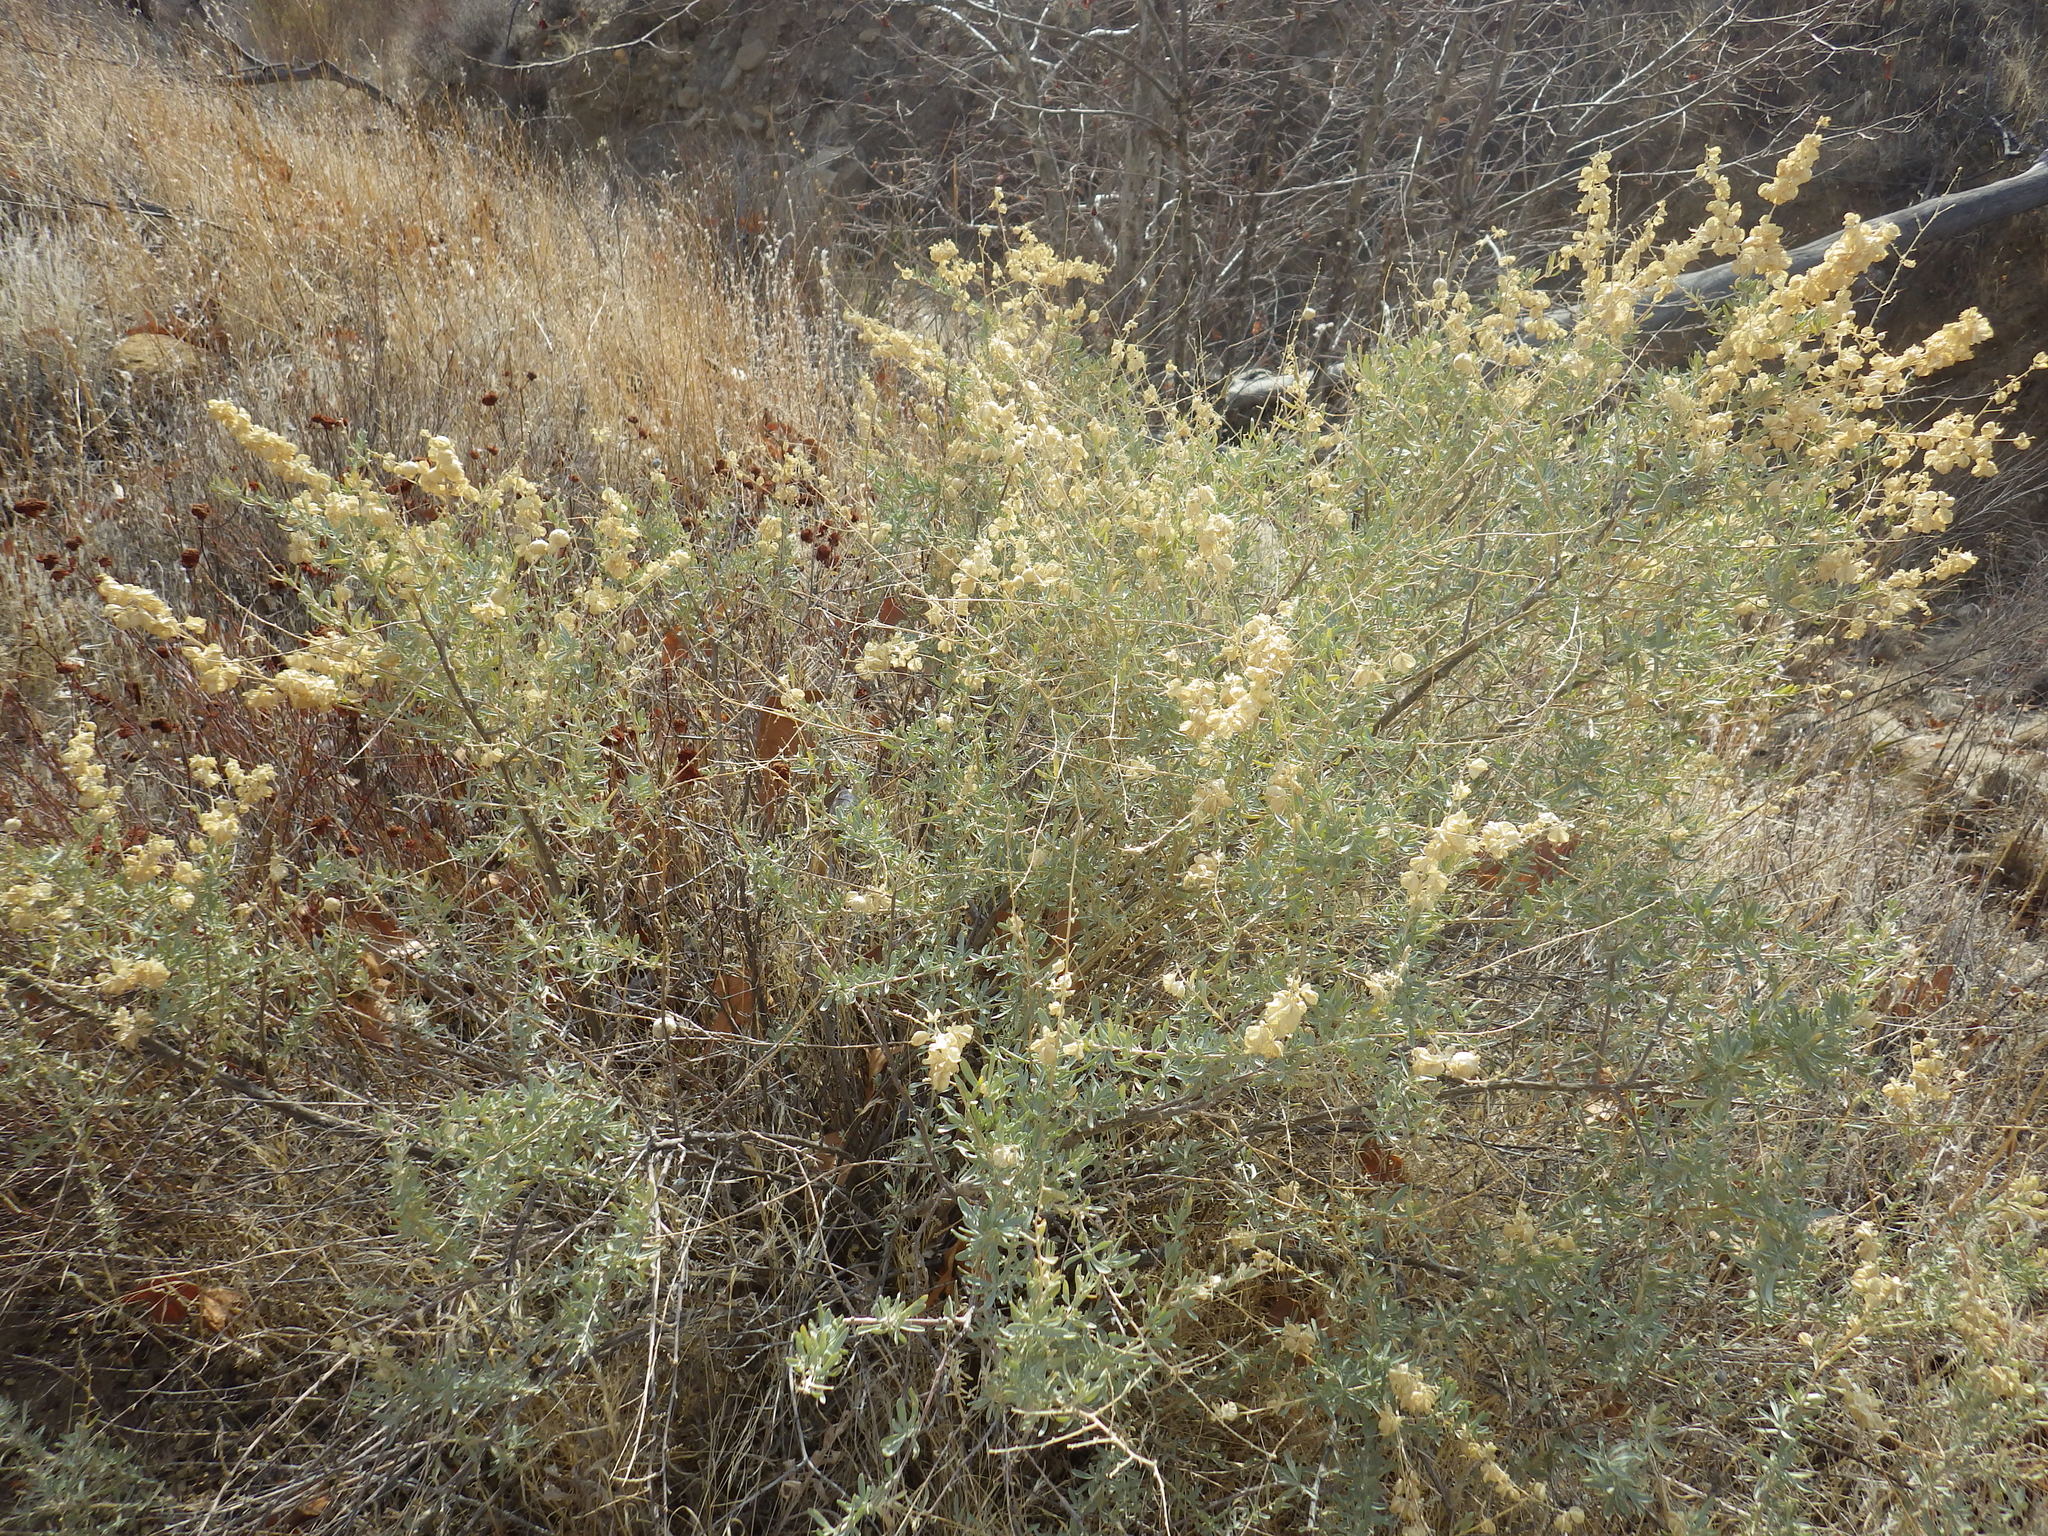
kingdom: Plantae
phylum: Tracheophyta
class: Magnoliopsida
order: Caryophyllales
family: Amaranthaceae
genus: Atriplex
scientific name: Atriplex canescens
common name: Four-wing saltbush
